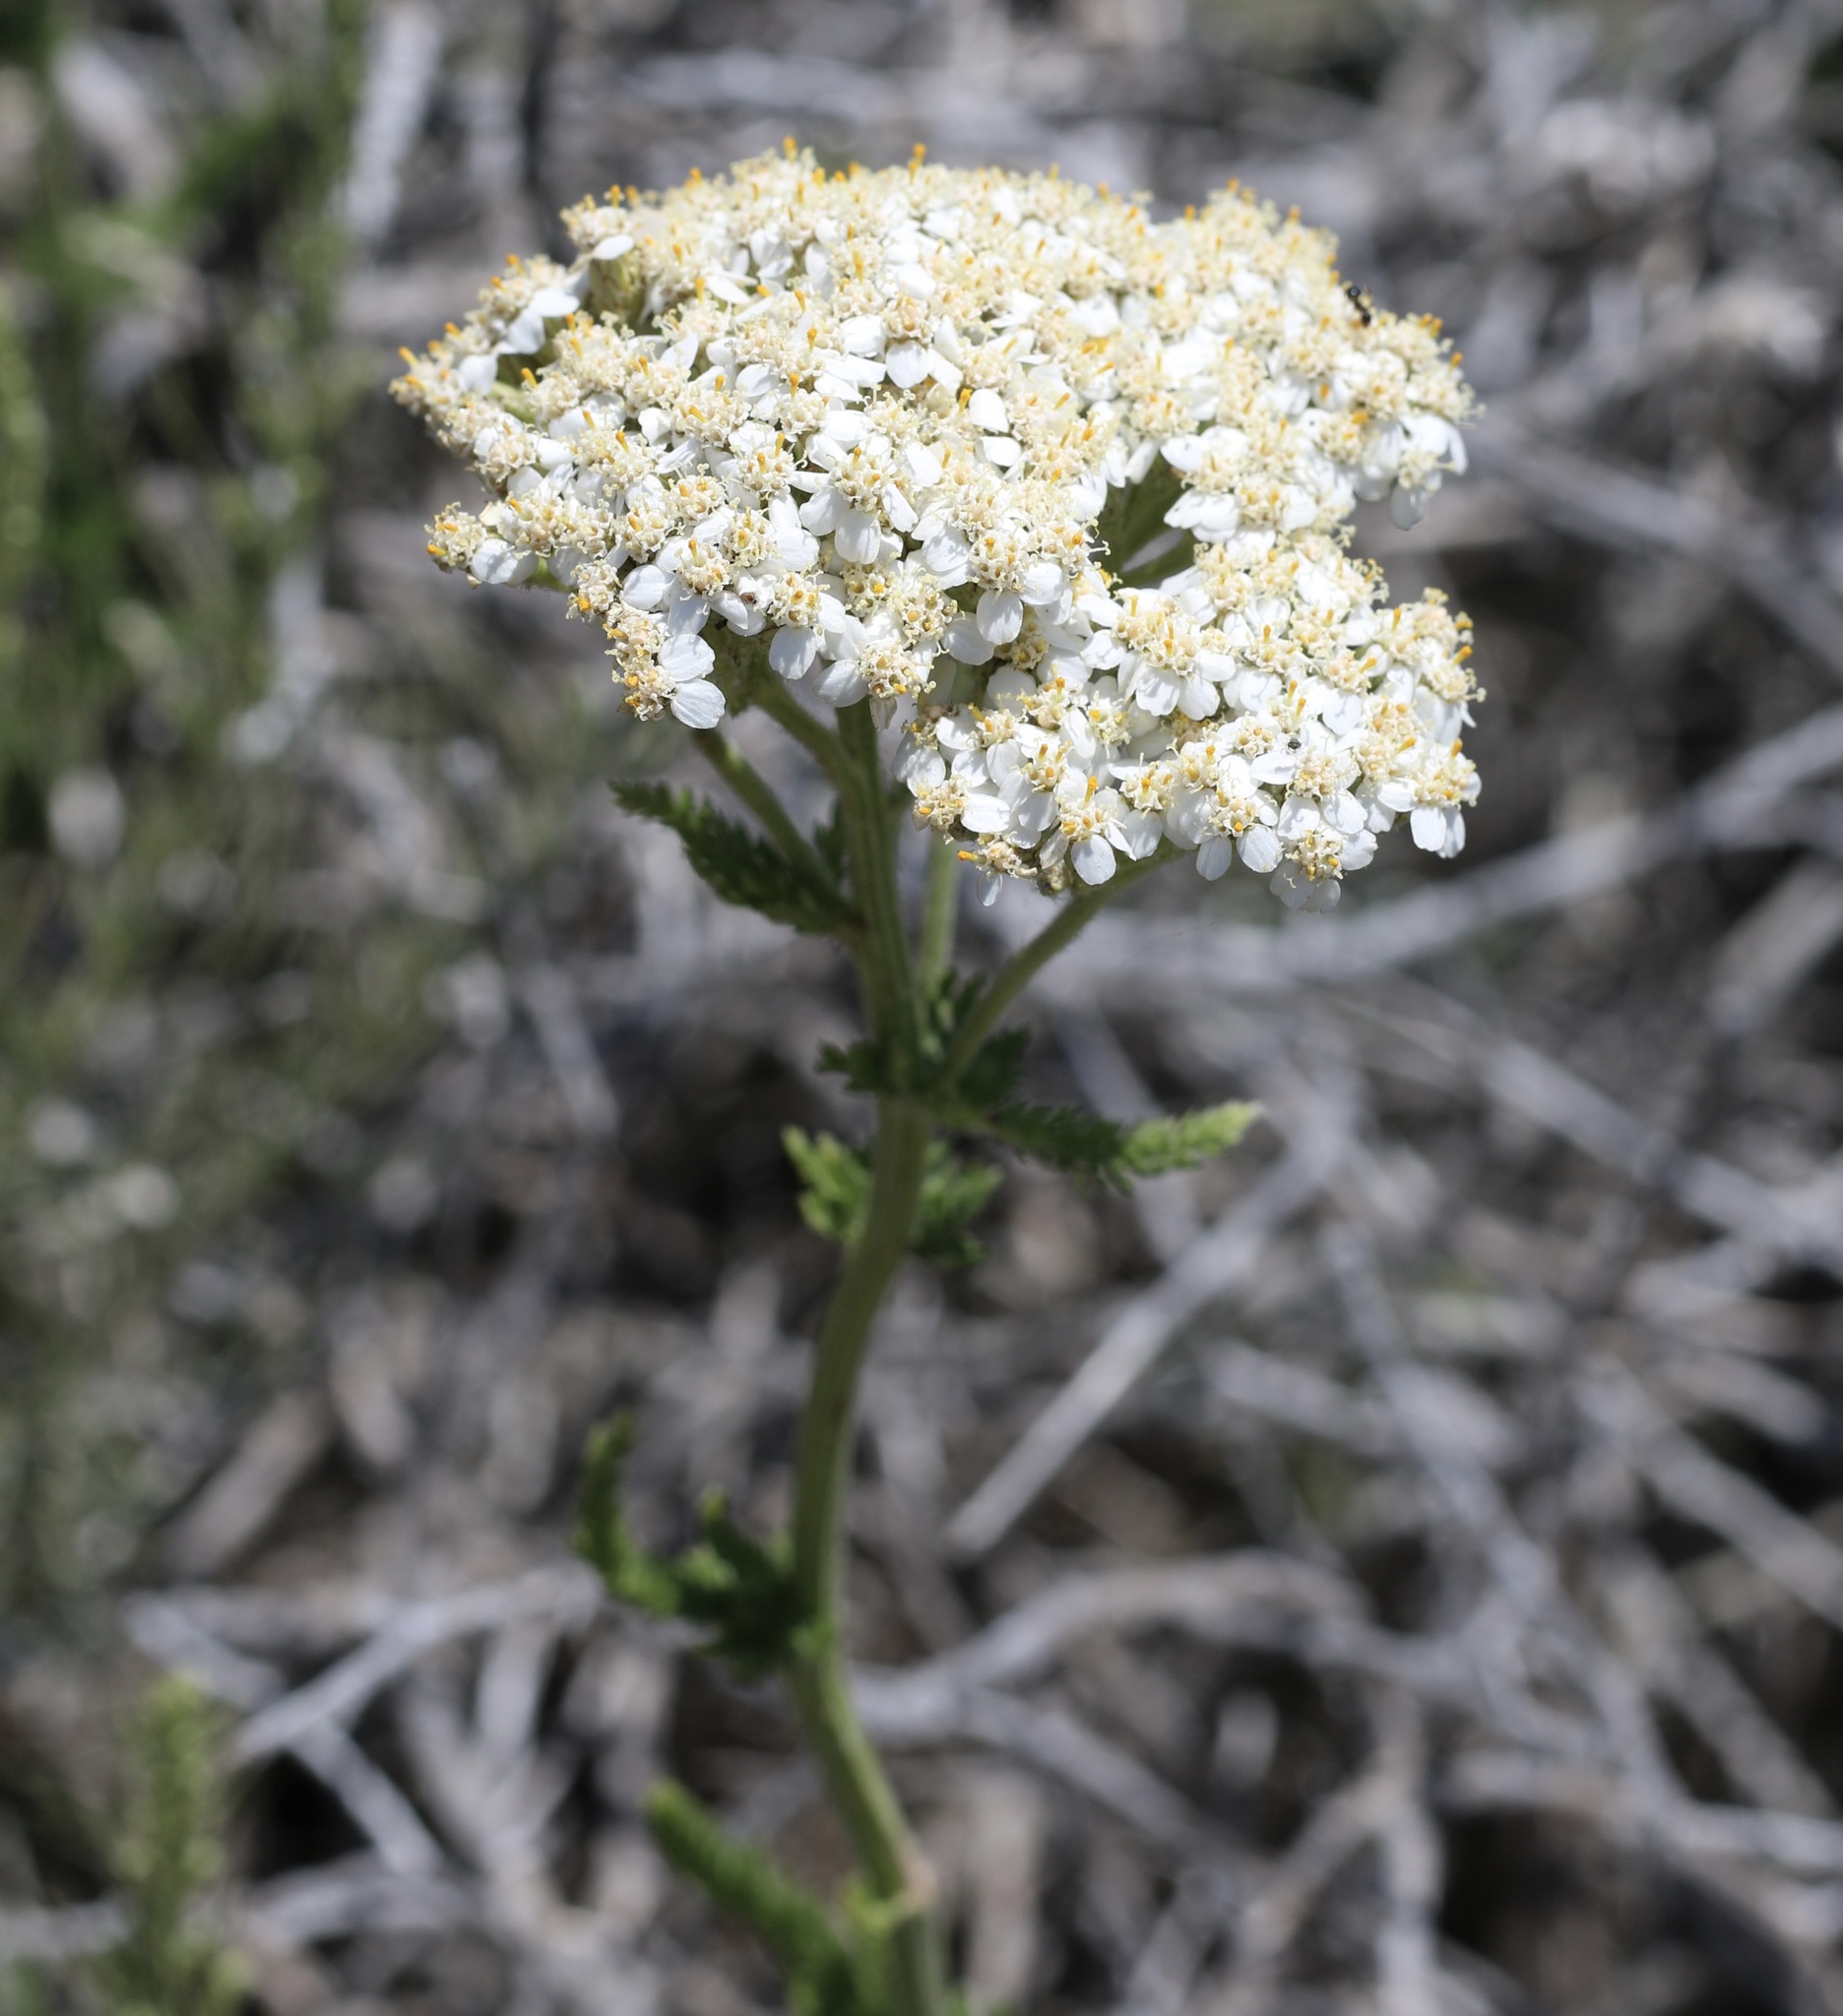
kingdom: Plantae
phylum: Tracheophyta
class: Magnoliopsida
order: Asterales
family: Asteraceae
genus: Achillea
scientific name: Achillea millefolium
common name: Yarrow
